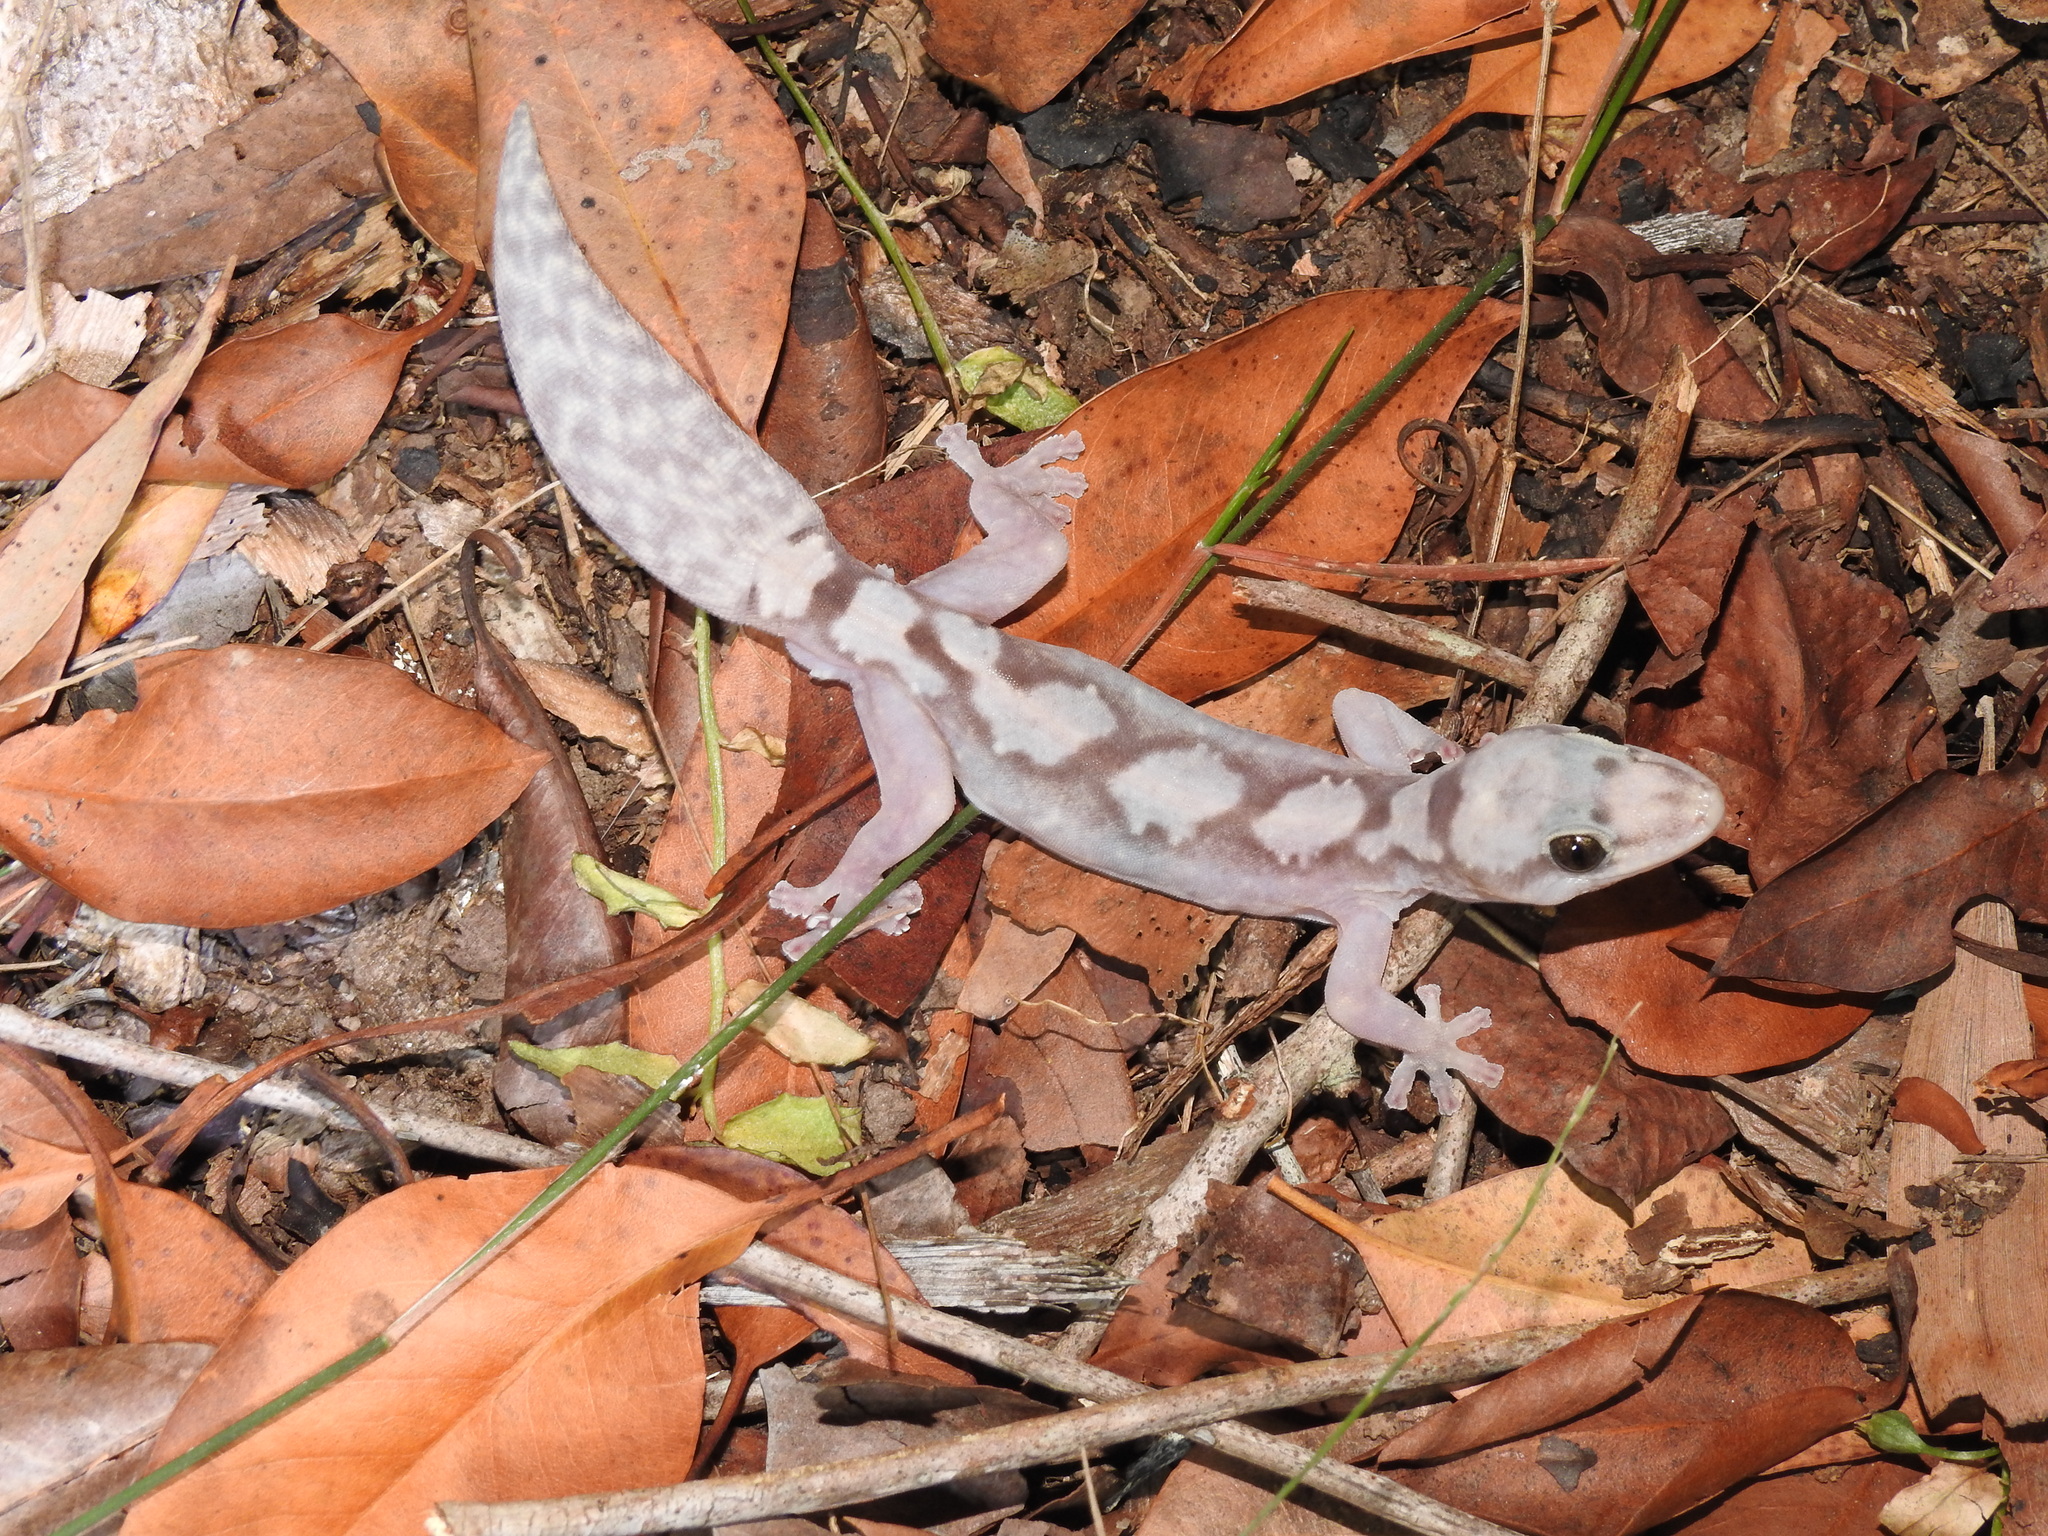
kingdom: Animalia
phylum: Chordata
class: Squamata
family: Diplodactylidae
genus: Nebulifera
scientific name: Nebulifera robusta
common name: Robust gecko
